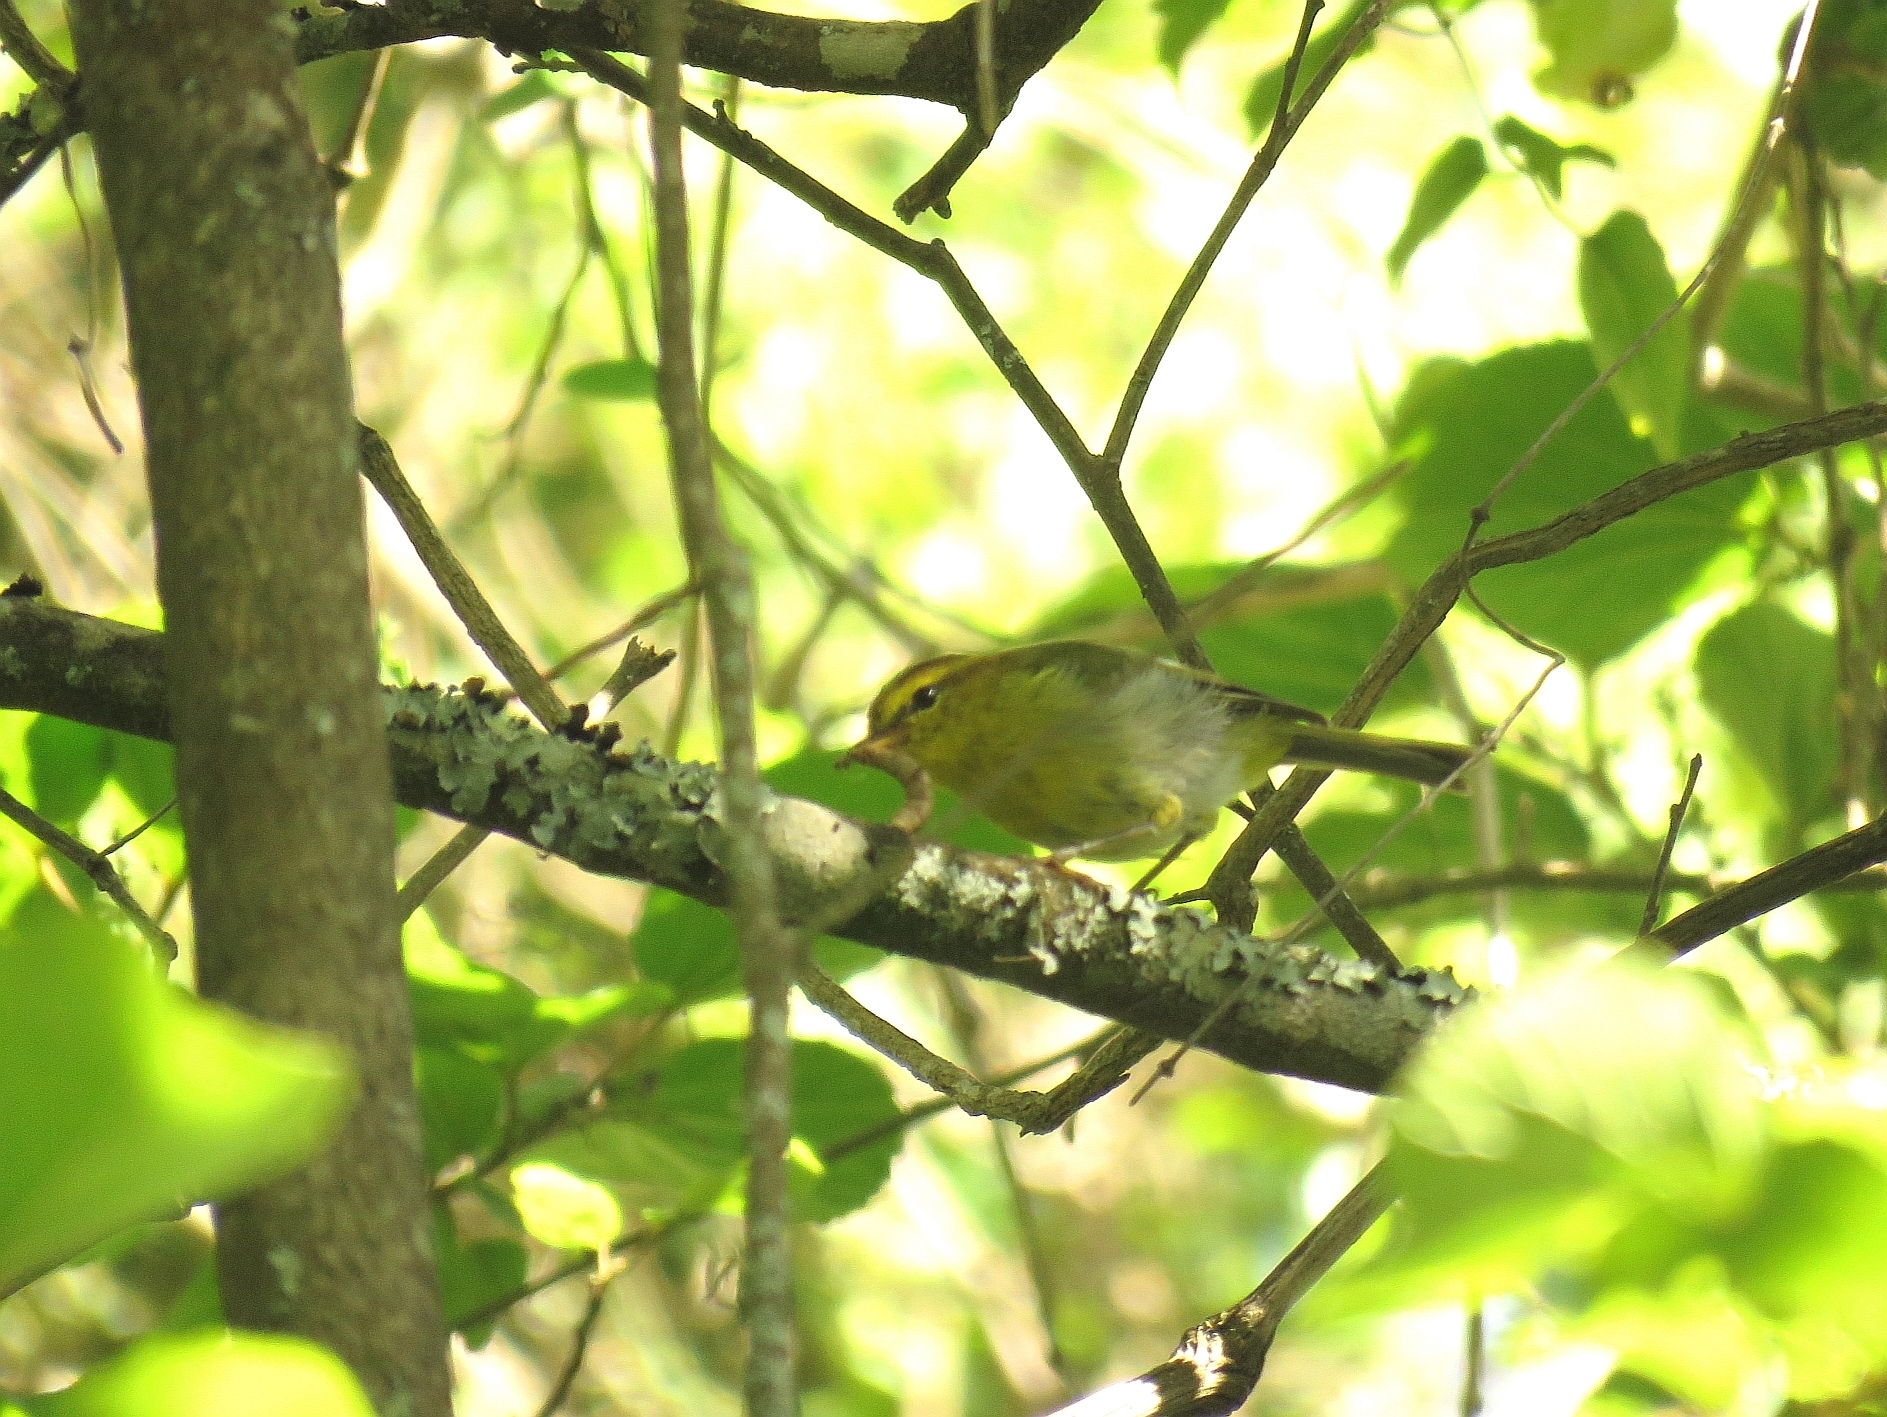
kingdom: Animalia
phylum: Chordata
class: Aves
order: Passeriformes
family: Phylloscopidae
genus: Phylloscopus
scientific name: Phylloscopus ruficapilla
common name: Yellow-throated woodland warbler
